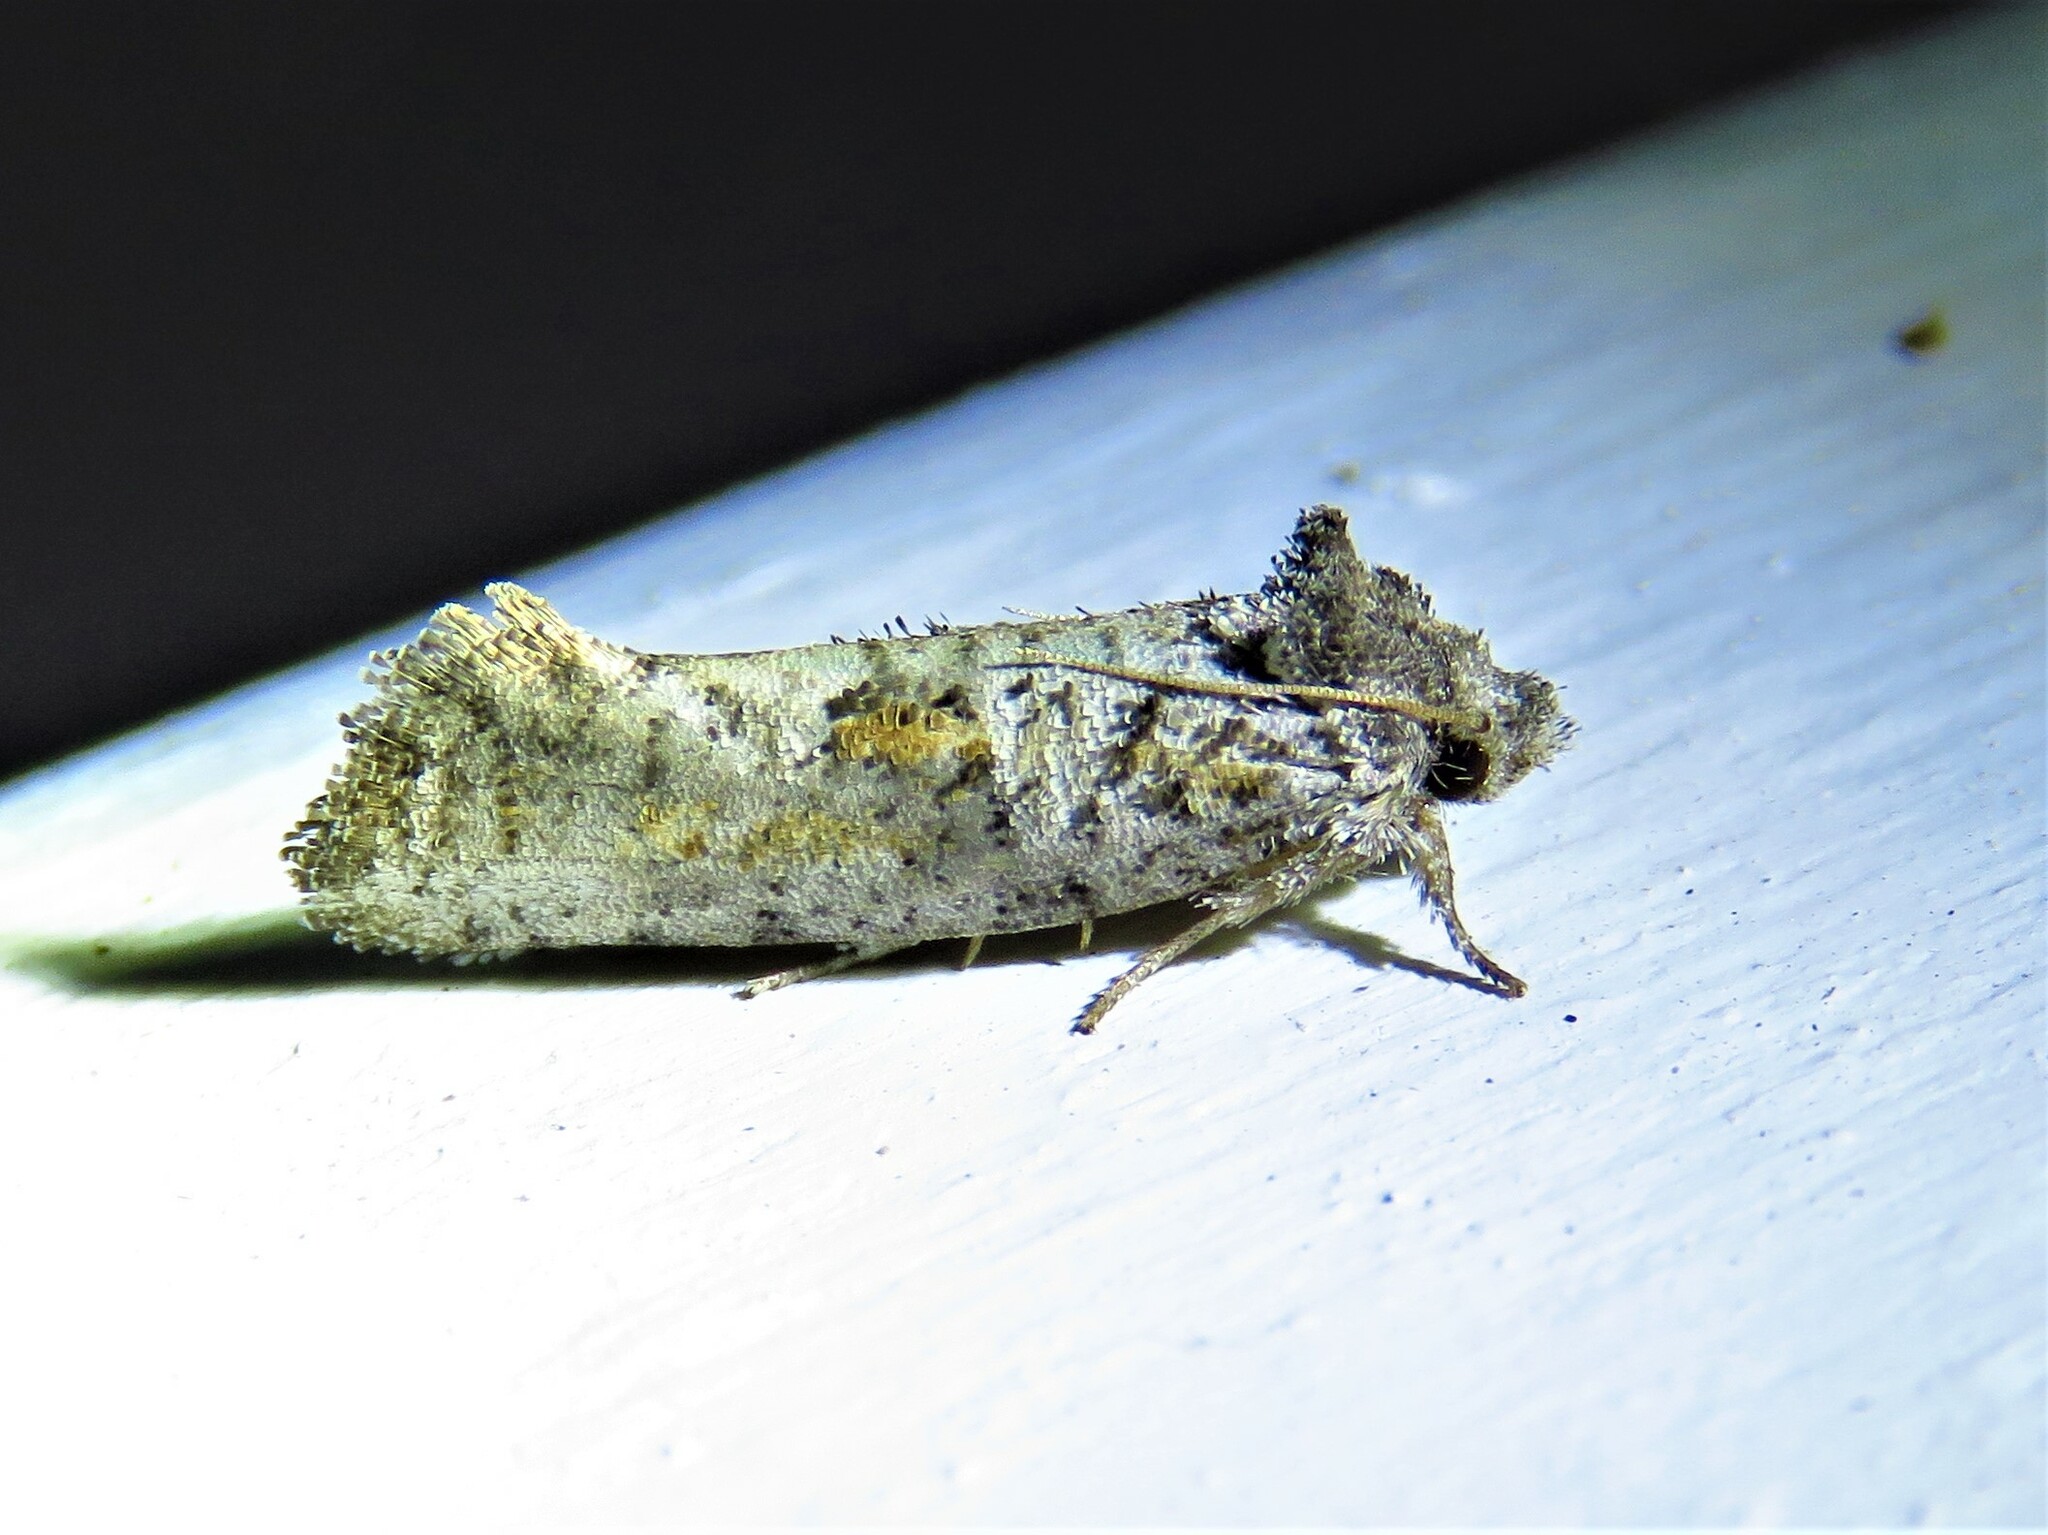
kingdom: Animalia
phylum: Arthropoda
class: Insecta
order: Lepidoptera
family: Tineidae
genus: Acrolophus
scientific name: Acrolophus piger
